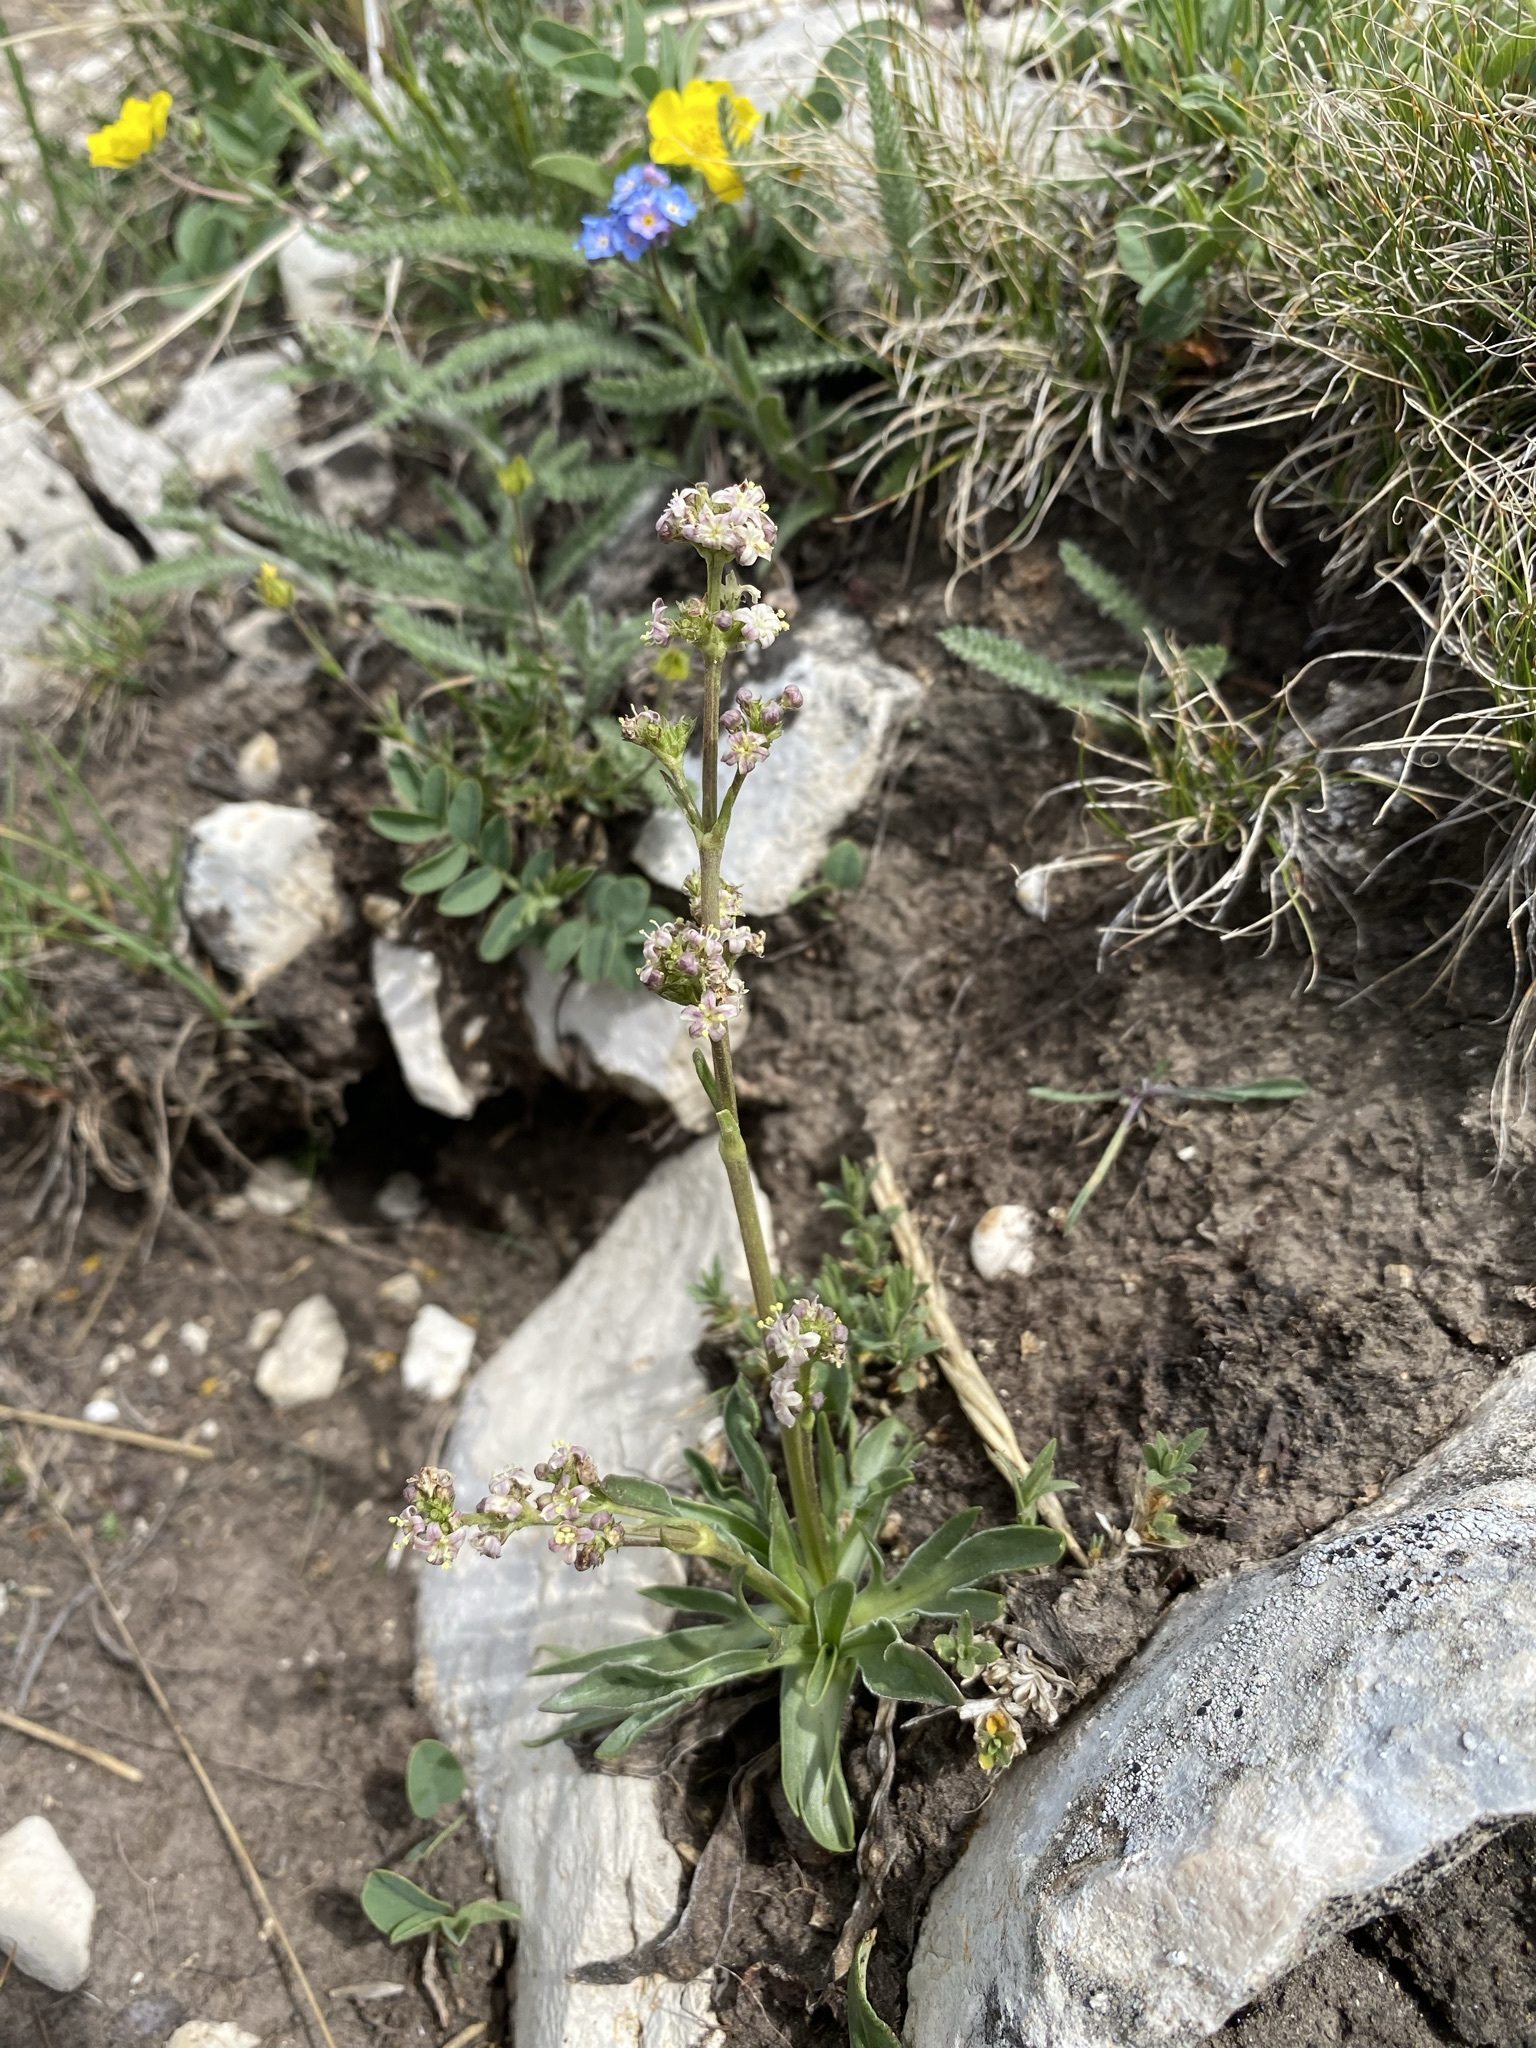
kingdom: Plantae
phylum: Tracheophyta
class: Magnoliopsida
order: Dipsacales
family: Caprifoliaceae
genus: Valeriana
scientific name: Valeriana edulis
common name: Taproot valerian
